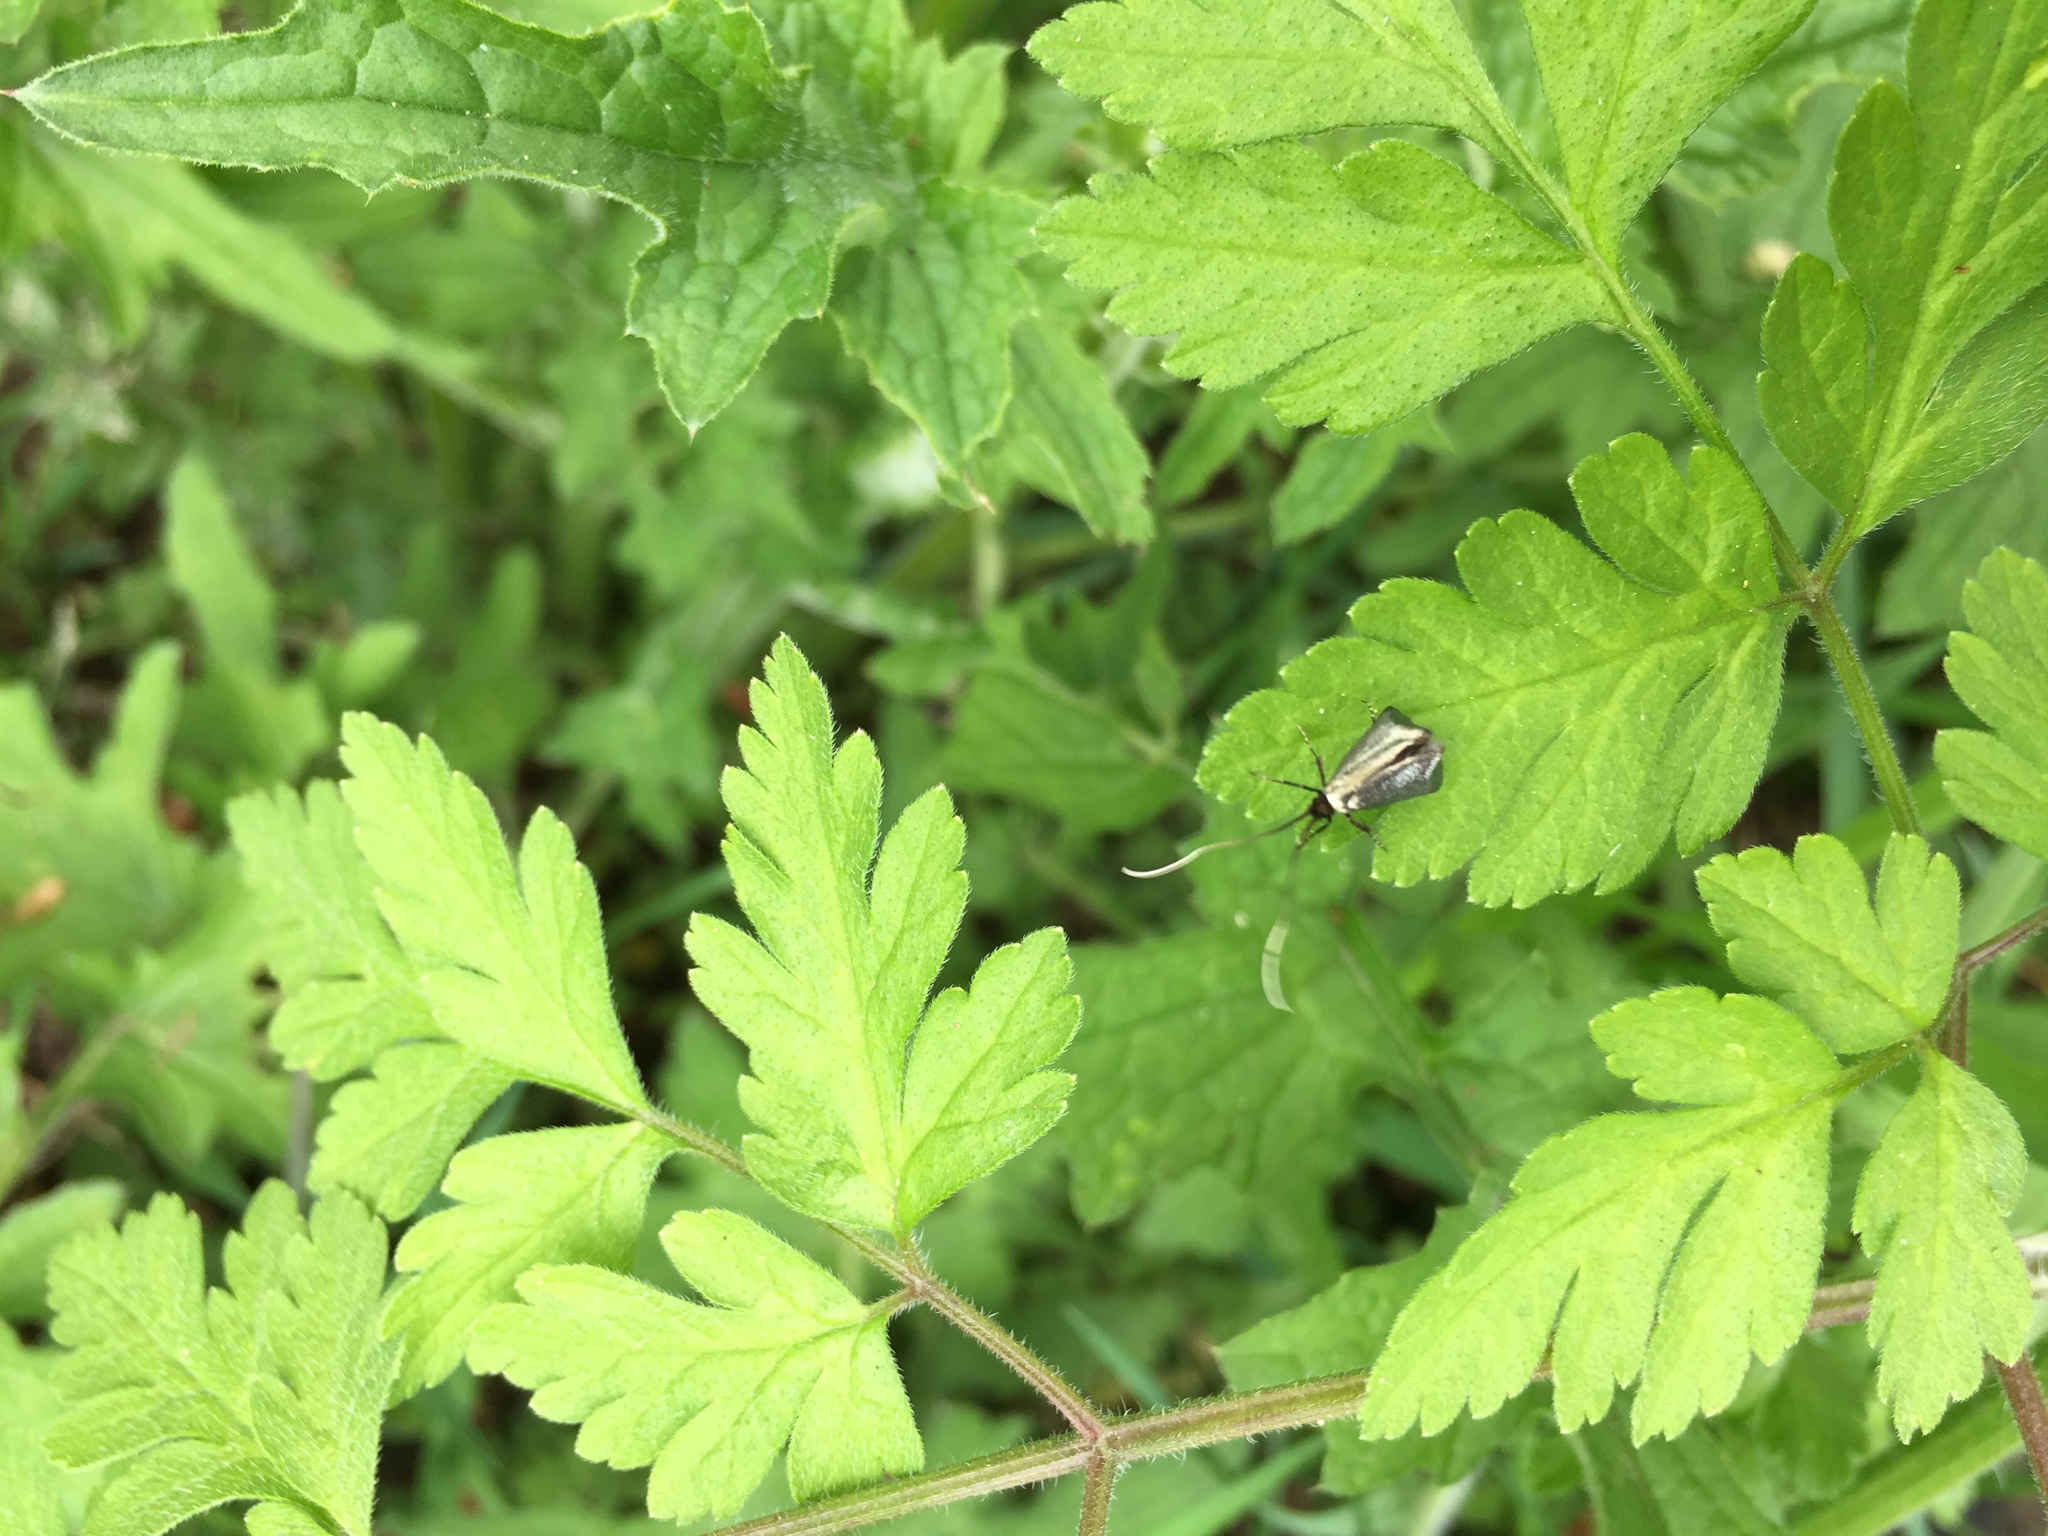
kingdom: Animalia
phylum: Arthropoda
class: Insecta
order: Lepidoptera
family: Adelidae
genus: Adela
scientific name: Adela viridella
